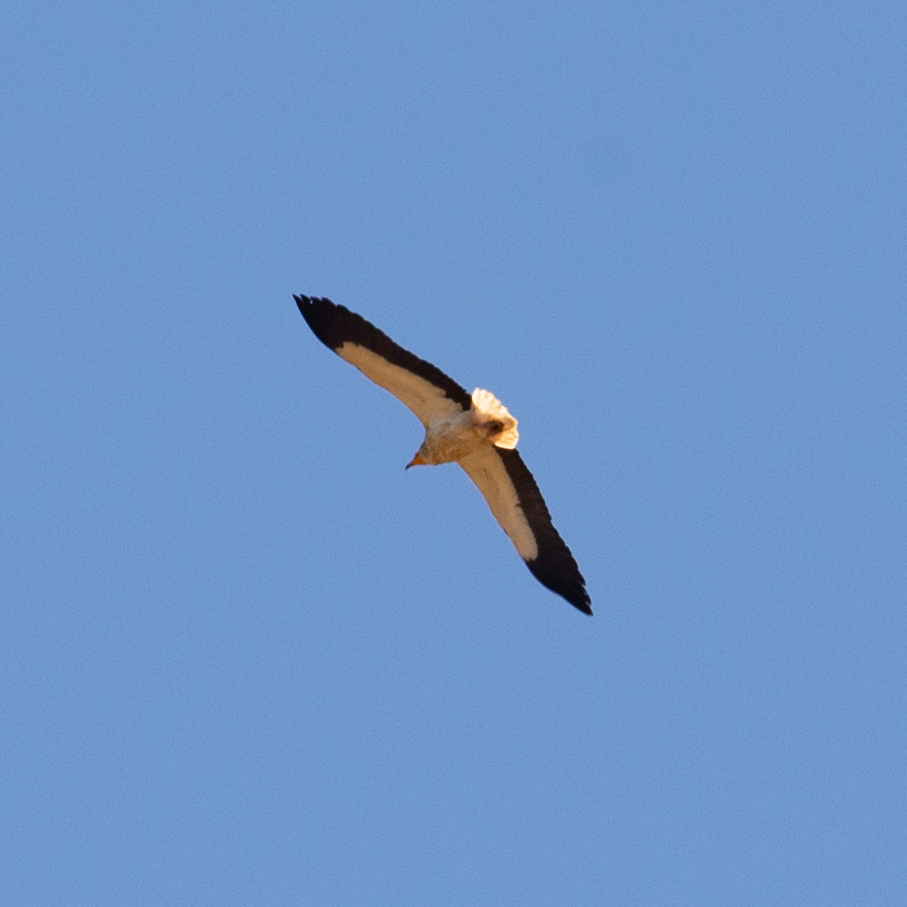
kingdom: Animalia
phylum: Chordata
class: Aves
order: Accipitriformes
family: Accipitridae
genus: Neophron
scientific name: Neophron percnopterus
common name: Egyptian vulture
